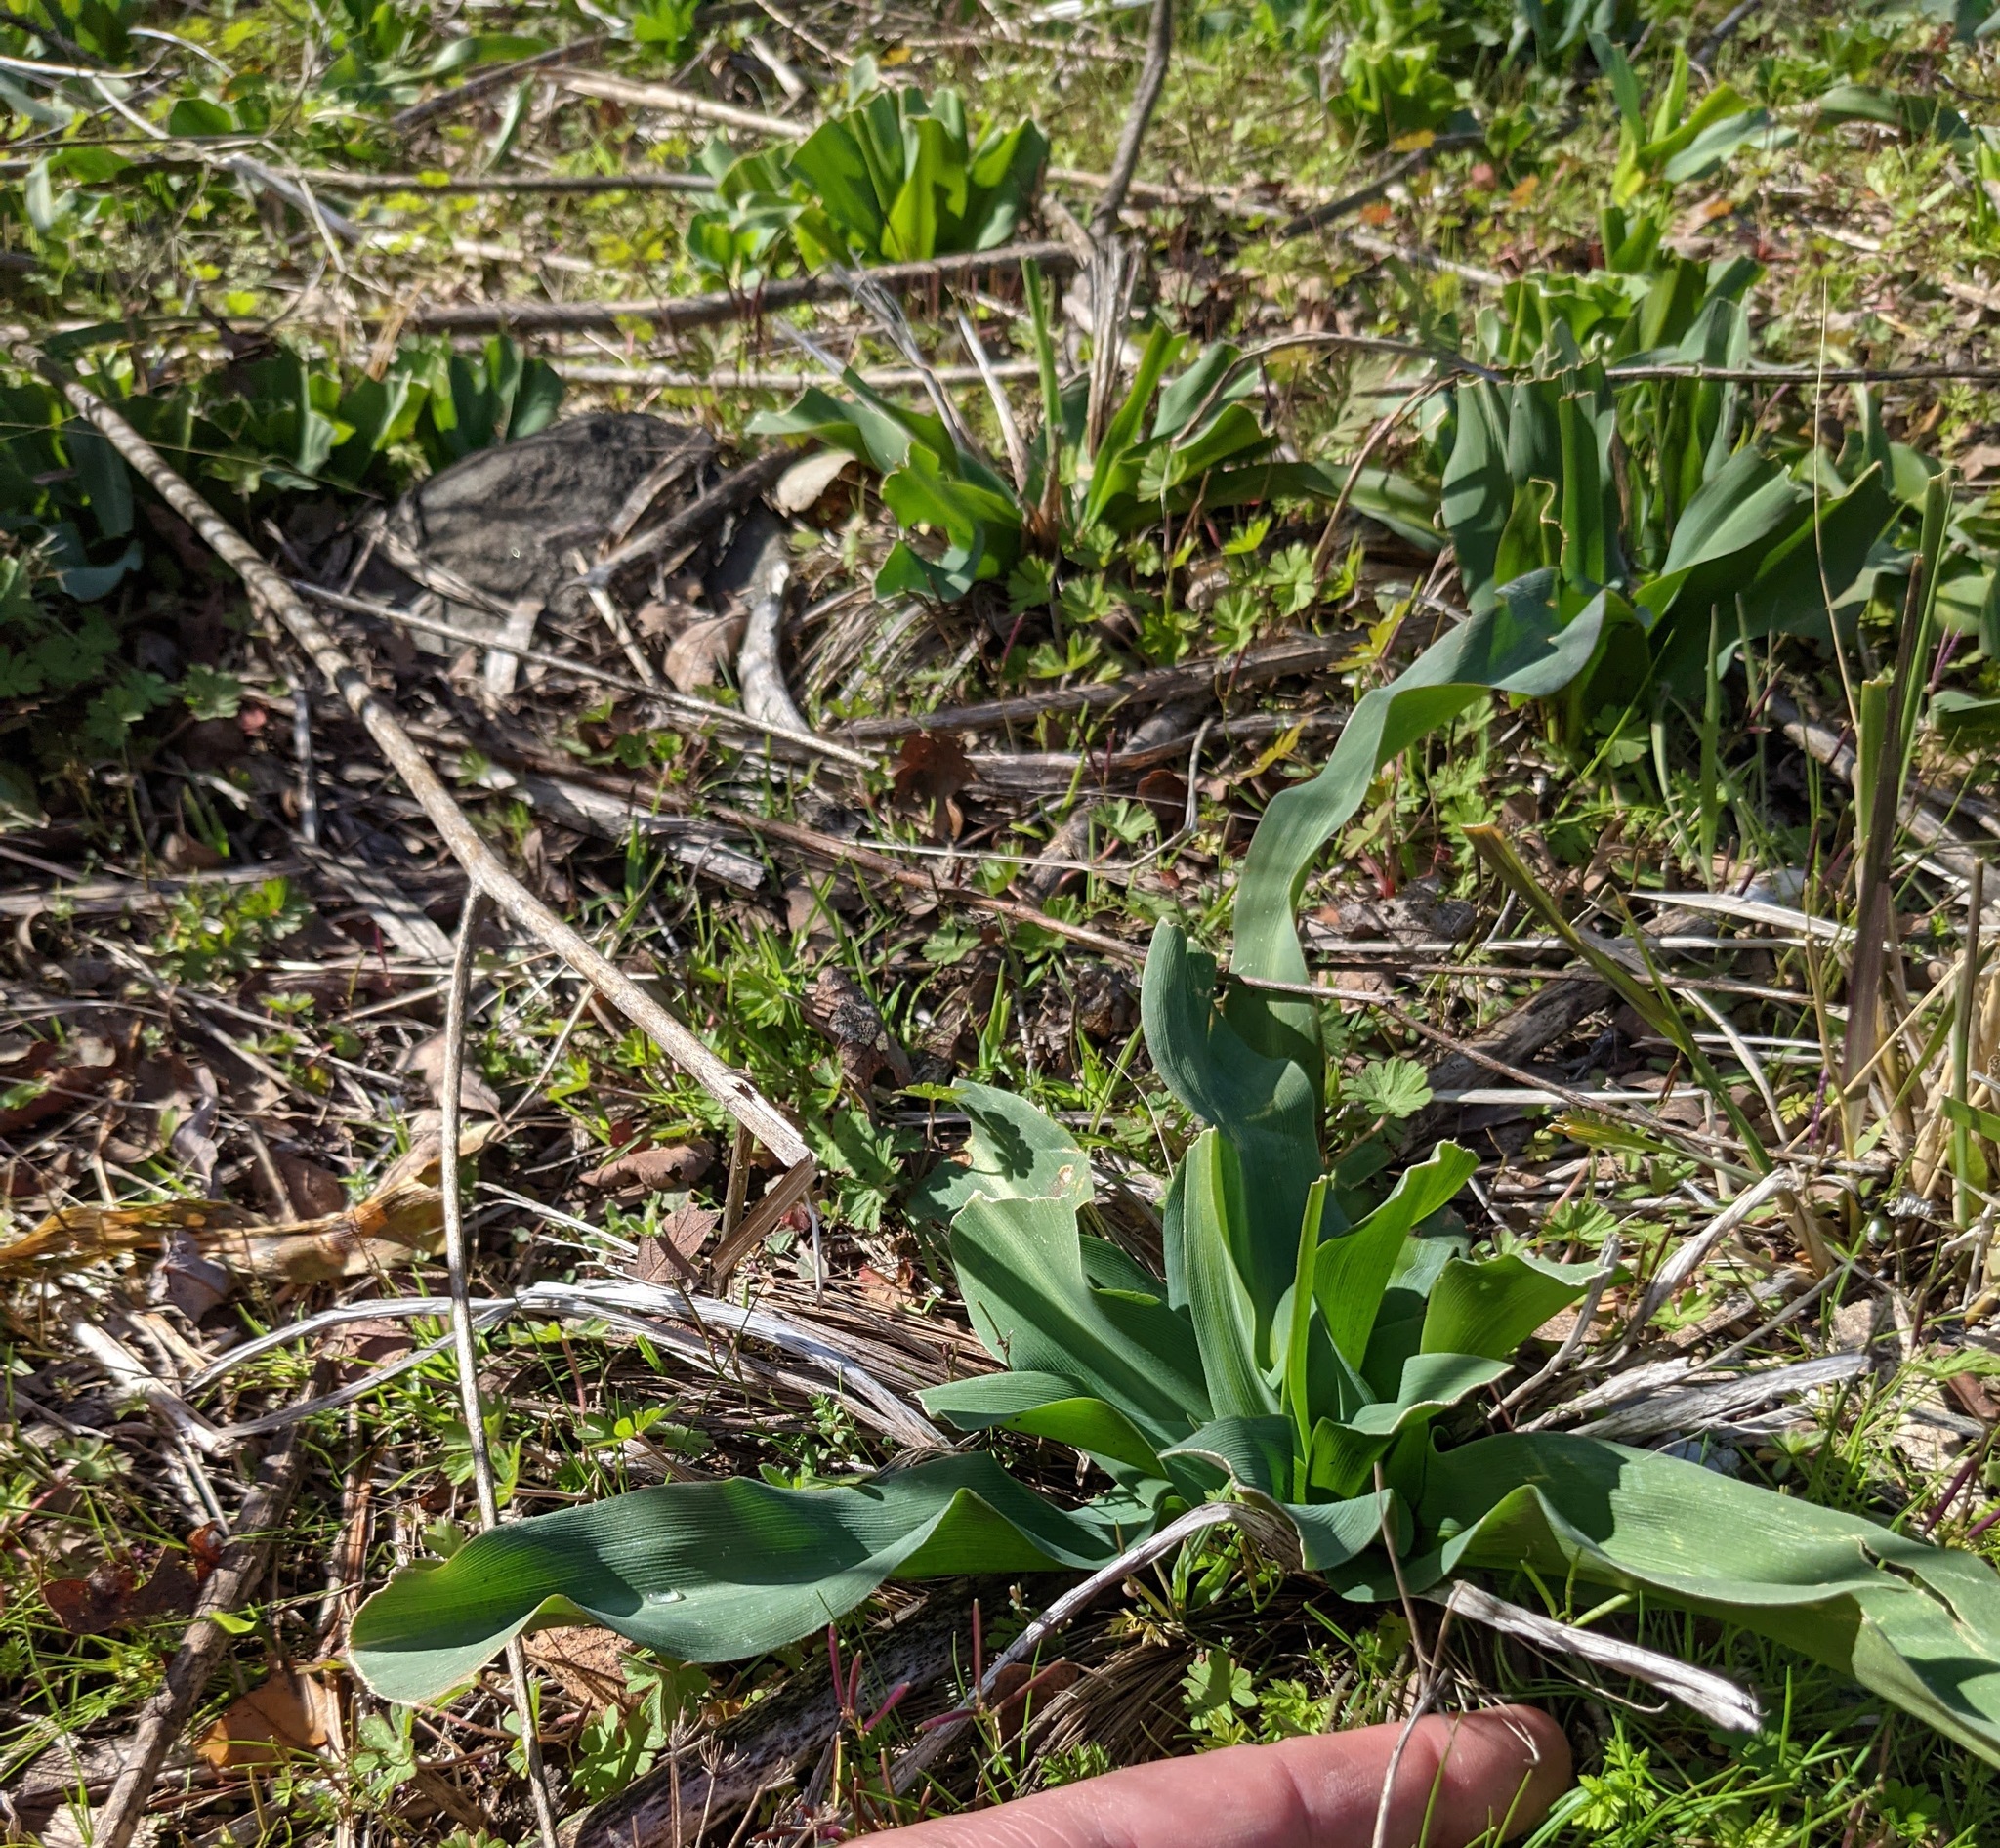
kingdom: Plantae
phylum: Tracheophyta
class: Liliopsida
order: Asparagales
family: Asparagaceae
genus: Chlorogalum
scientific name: Chlorogalum pomeridianum
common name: Amole
